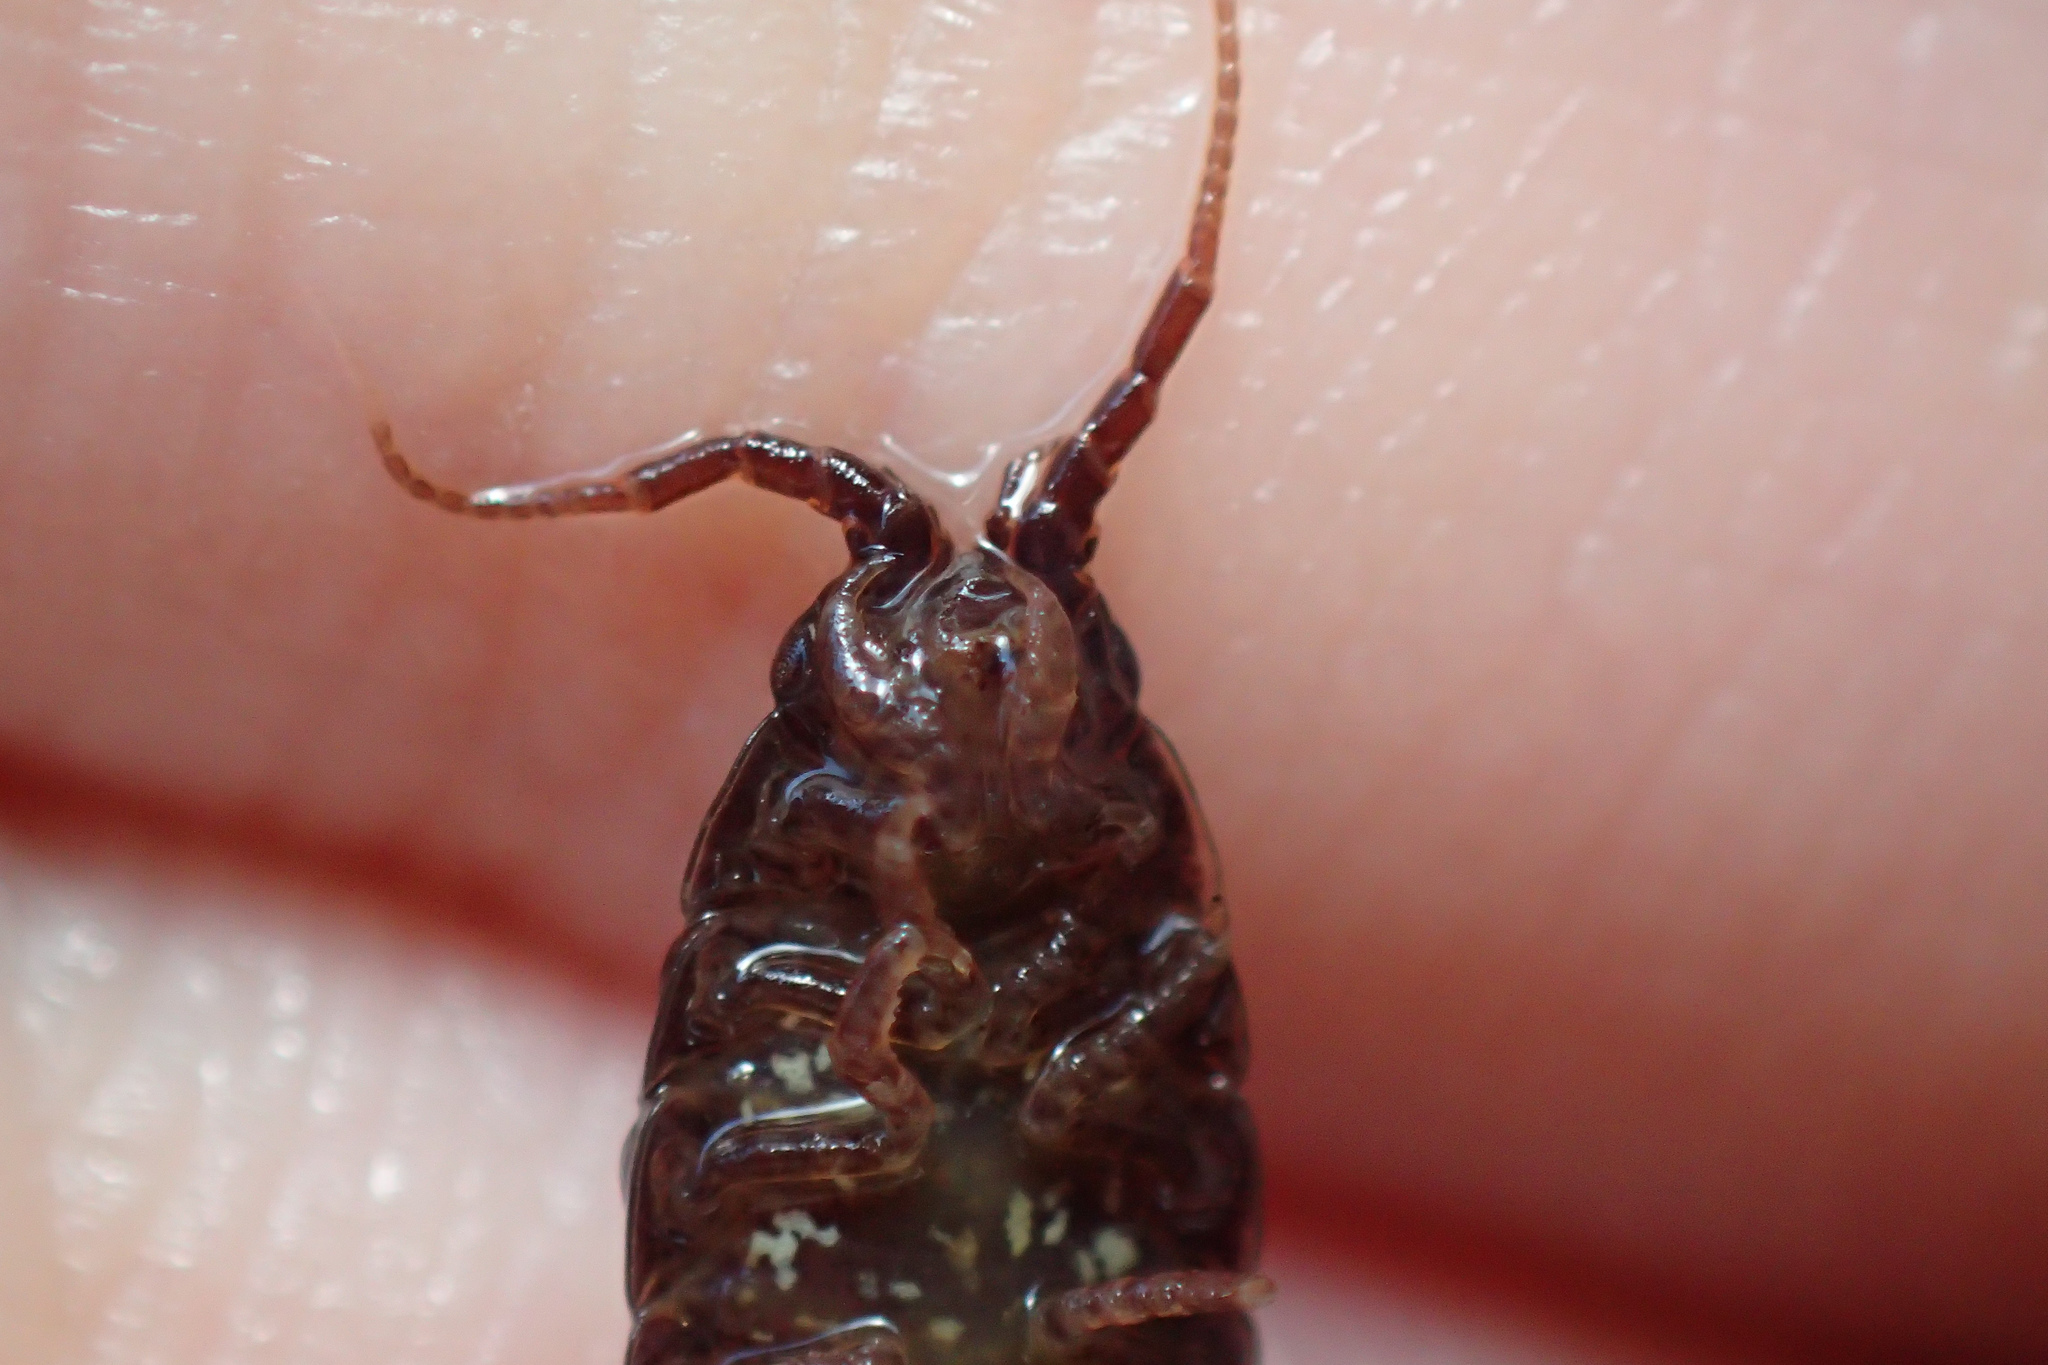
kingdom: Animalia
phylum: Arthropoda
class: Malacostraca
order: Isopoda
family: Idoteidae
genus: Idotea
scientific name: Idotea balthica
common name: Baltic isopod
